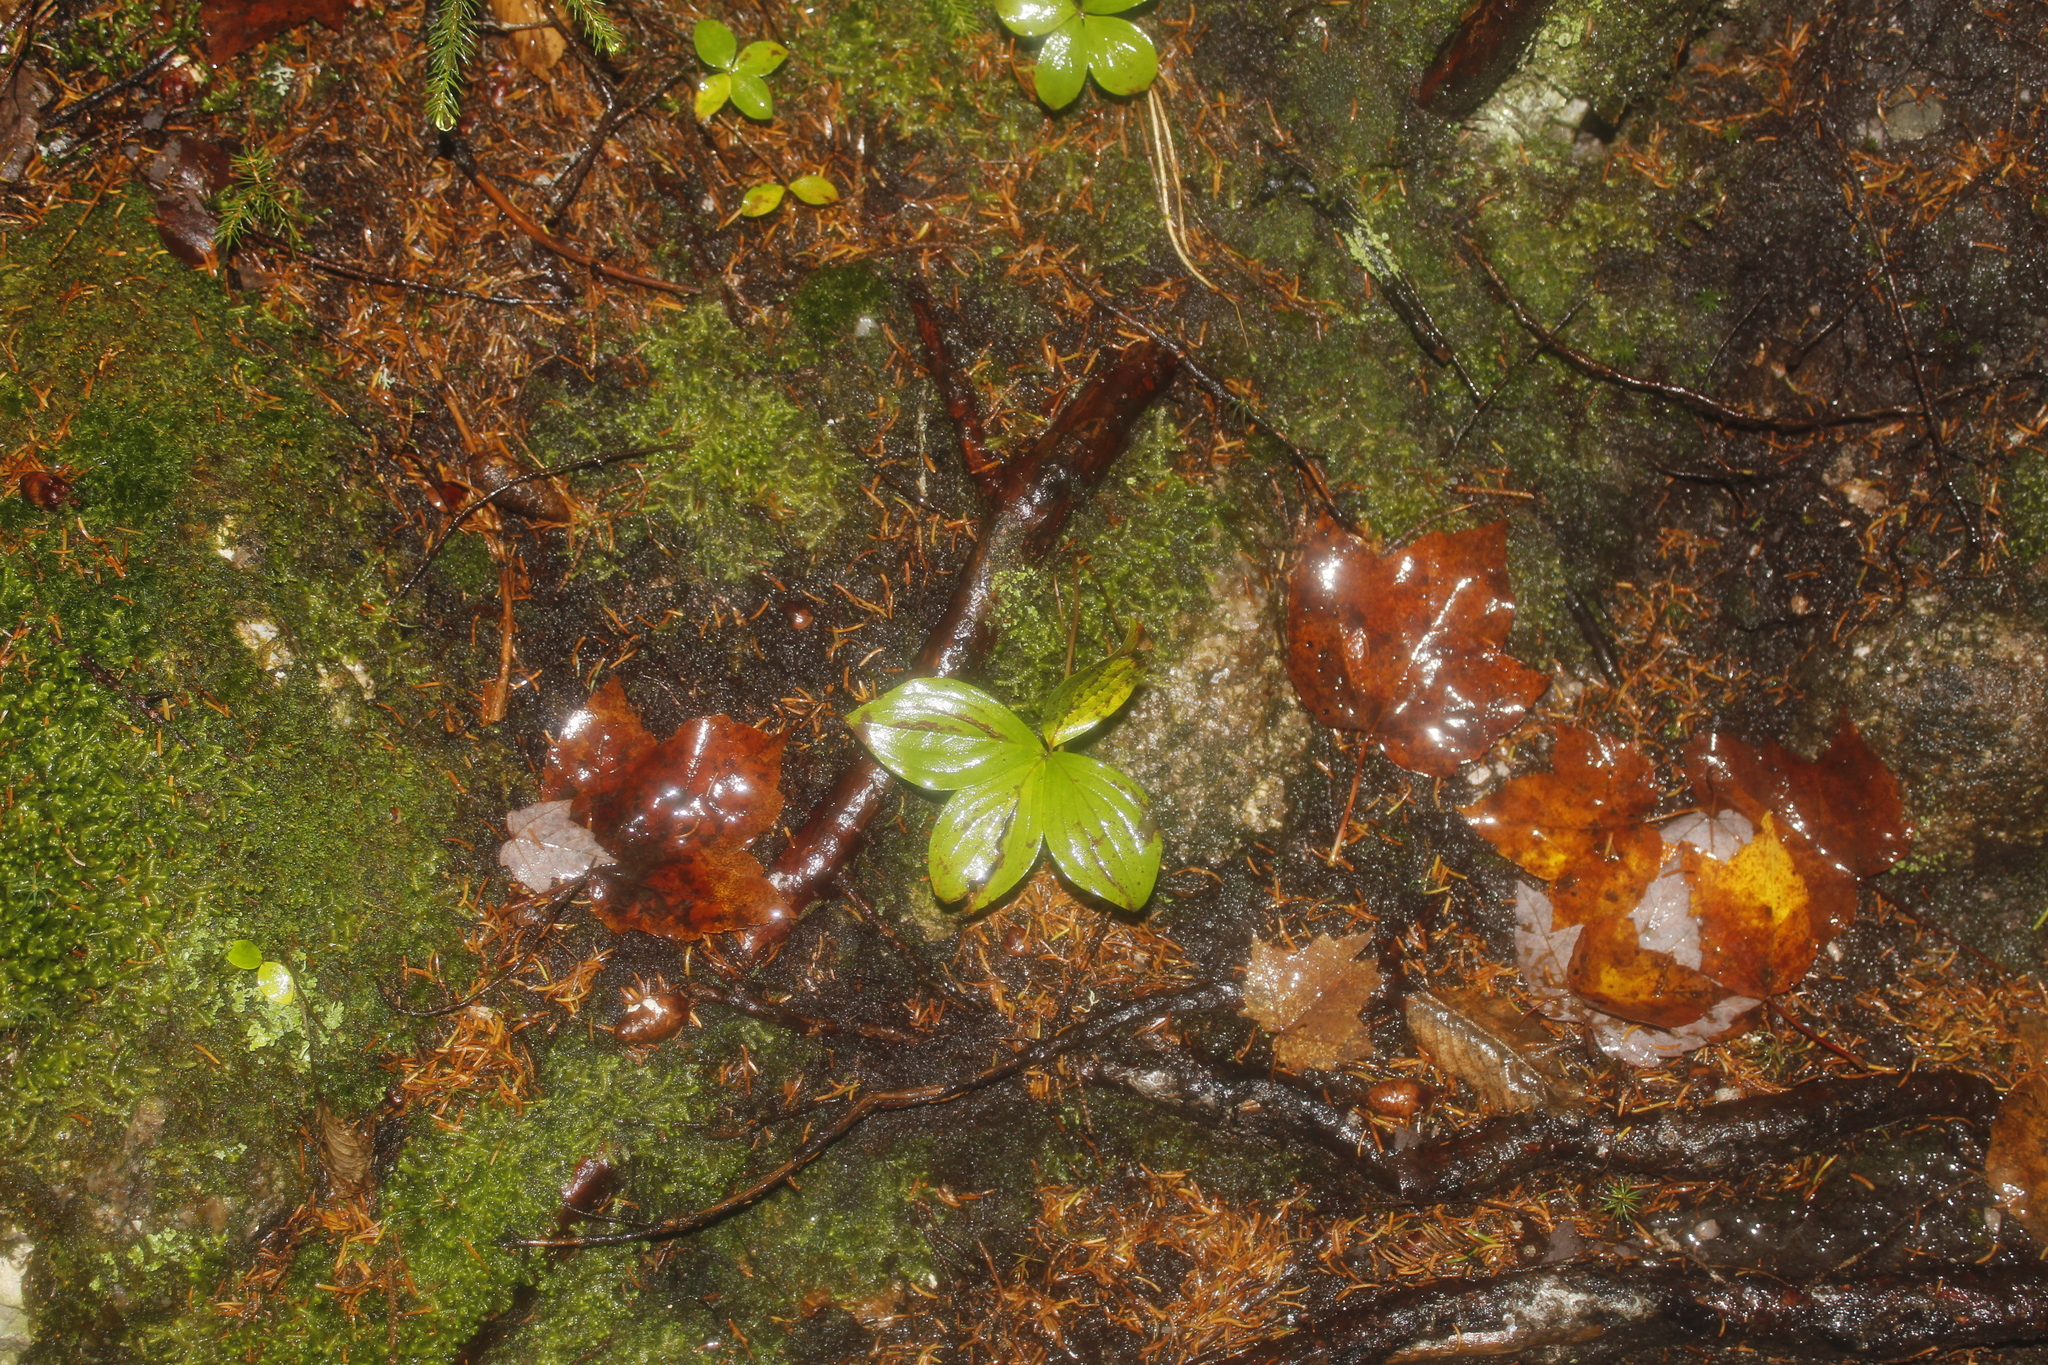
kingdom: Plantae
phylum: Tracheophyta
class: Magnoliopsida
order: Cornales
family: Cornaceae
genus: Cornus
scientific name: Cornus canadensis
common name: Creeping dogwood
